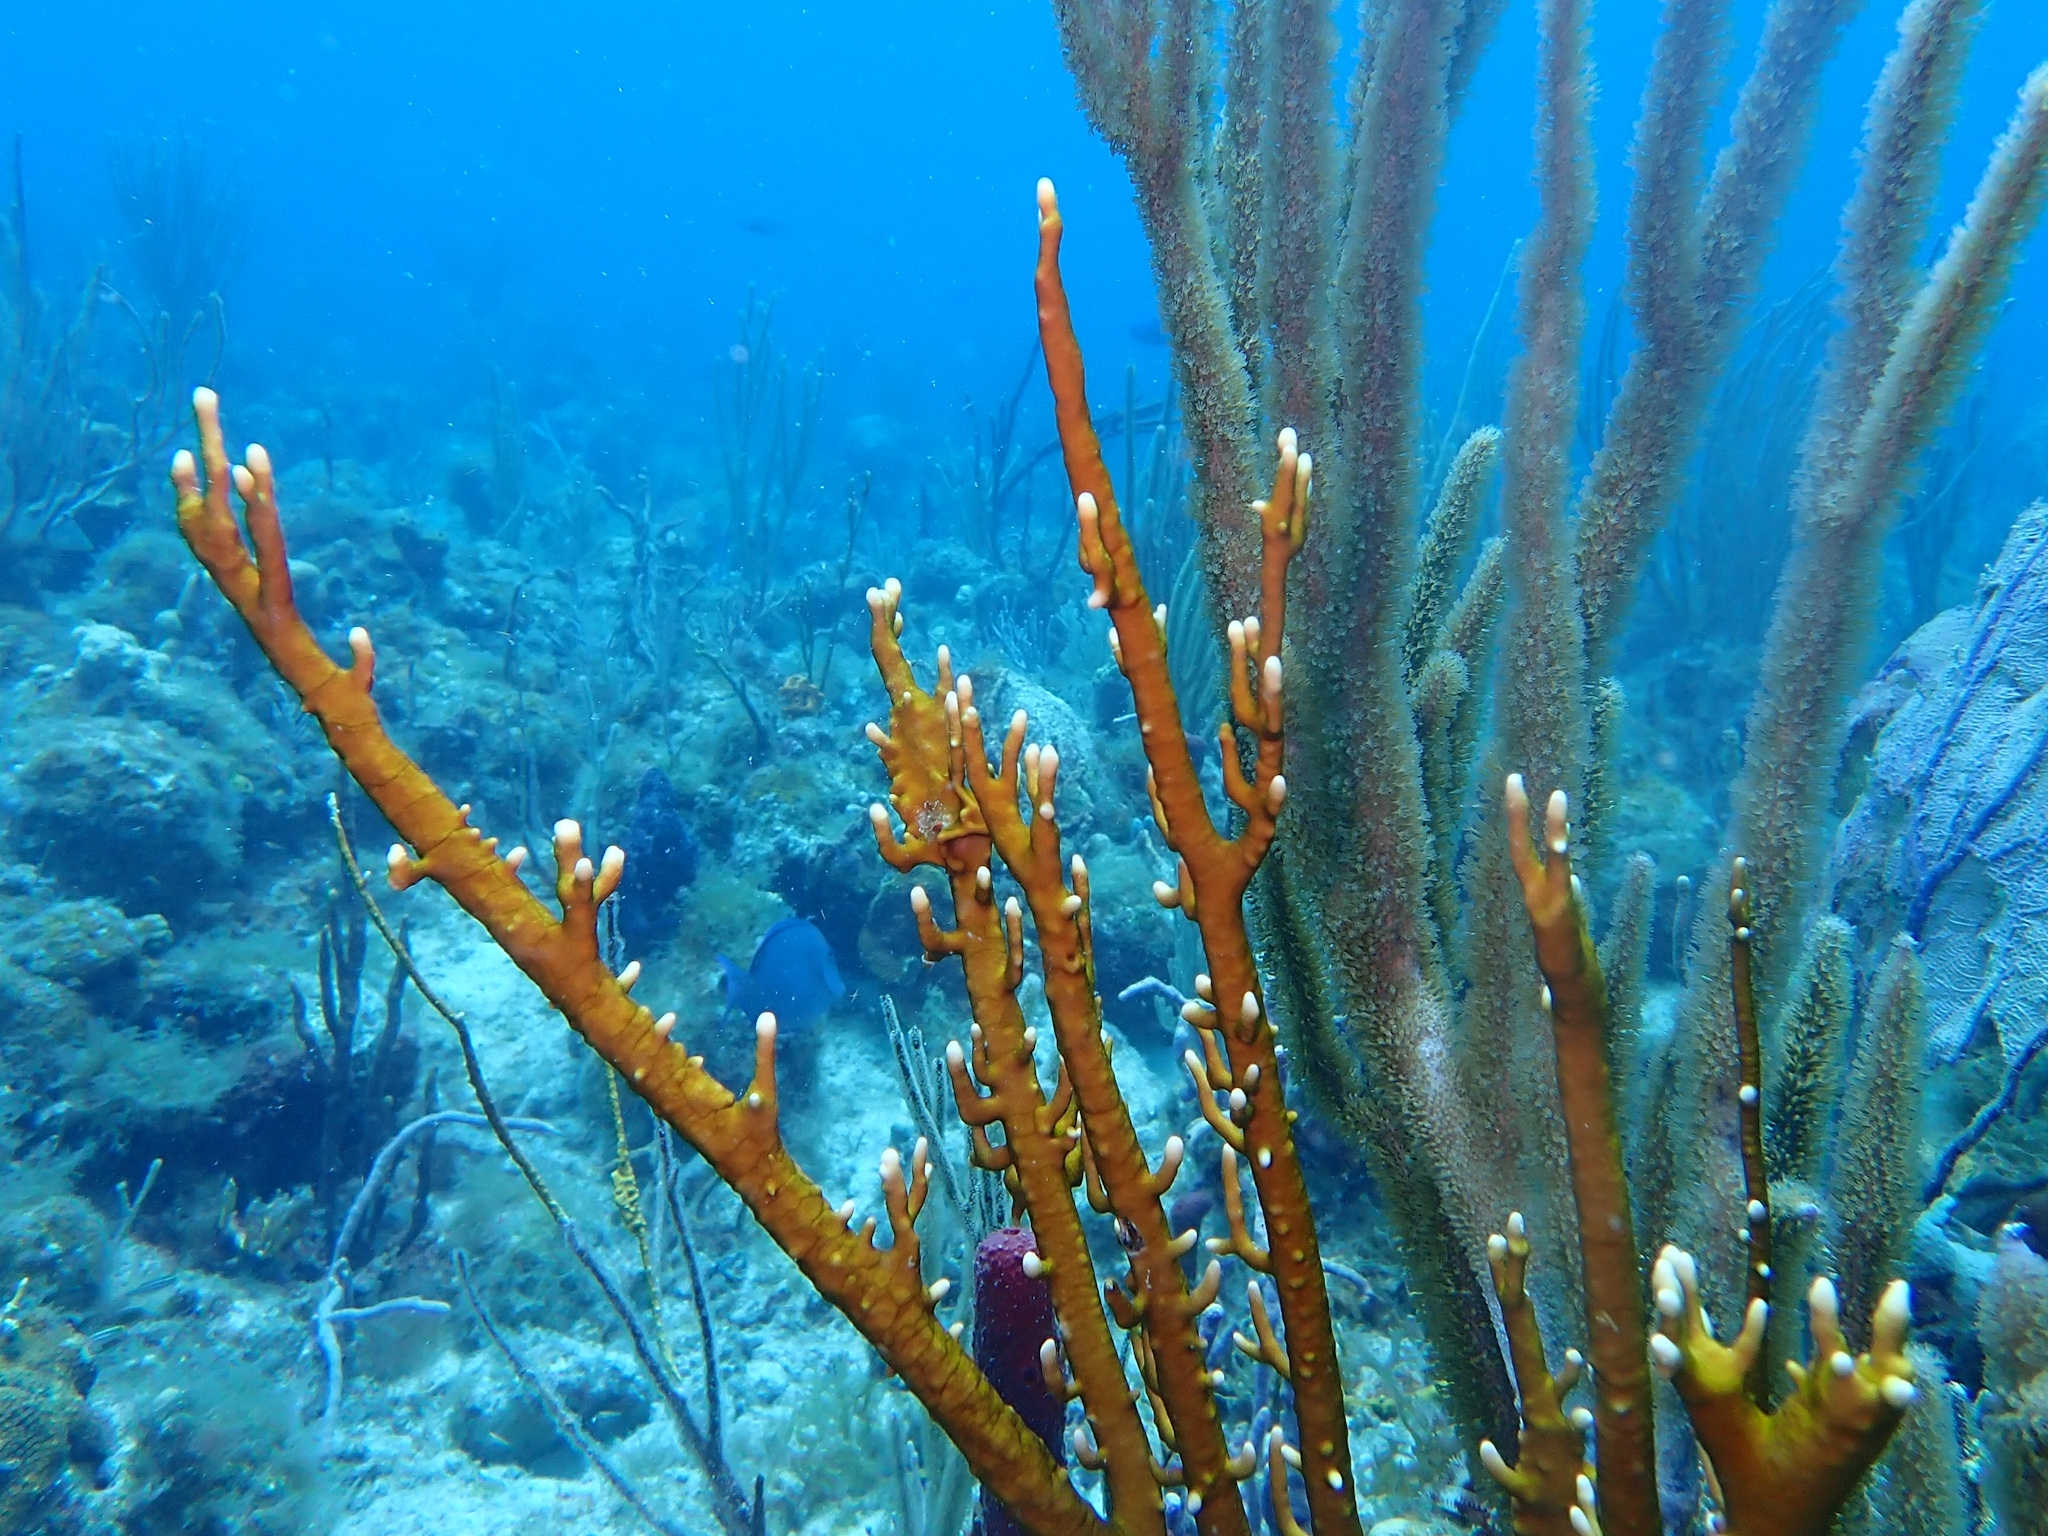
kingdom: Animalia
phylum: Cnidaria
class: Hydrozoa
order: Anthoathecata
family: Milleporidae
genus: Millepora
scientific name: Millepora alcicornis
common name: Branching fire coral
